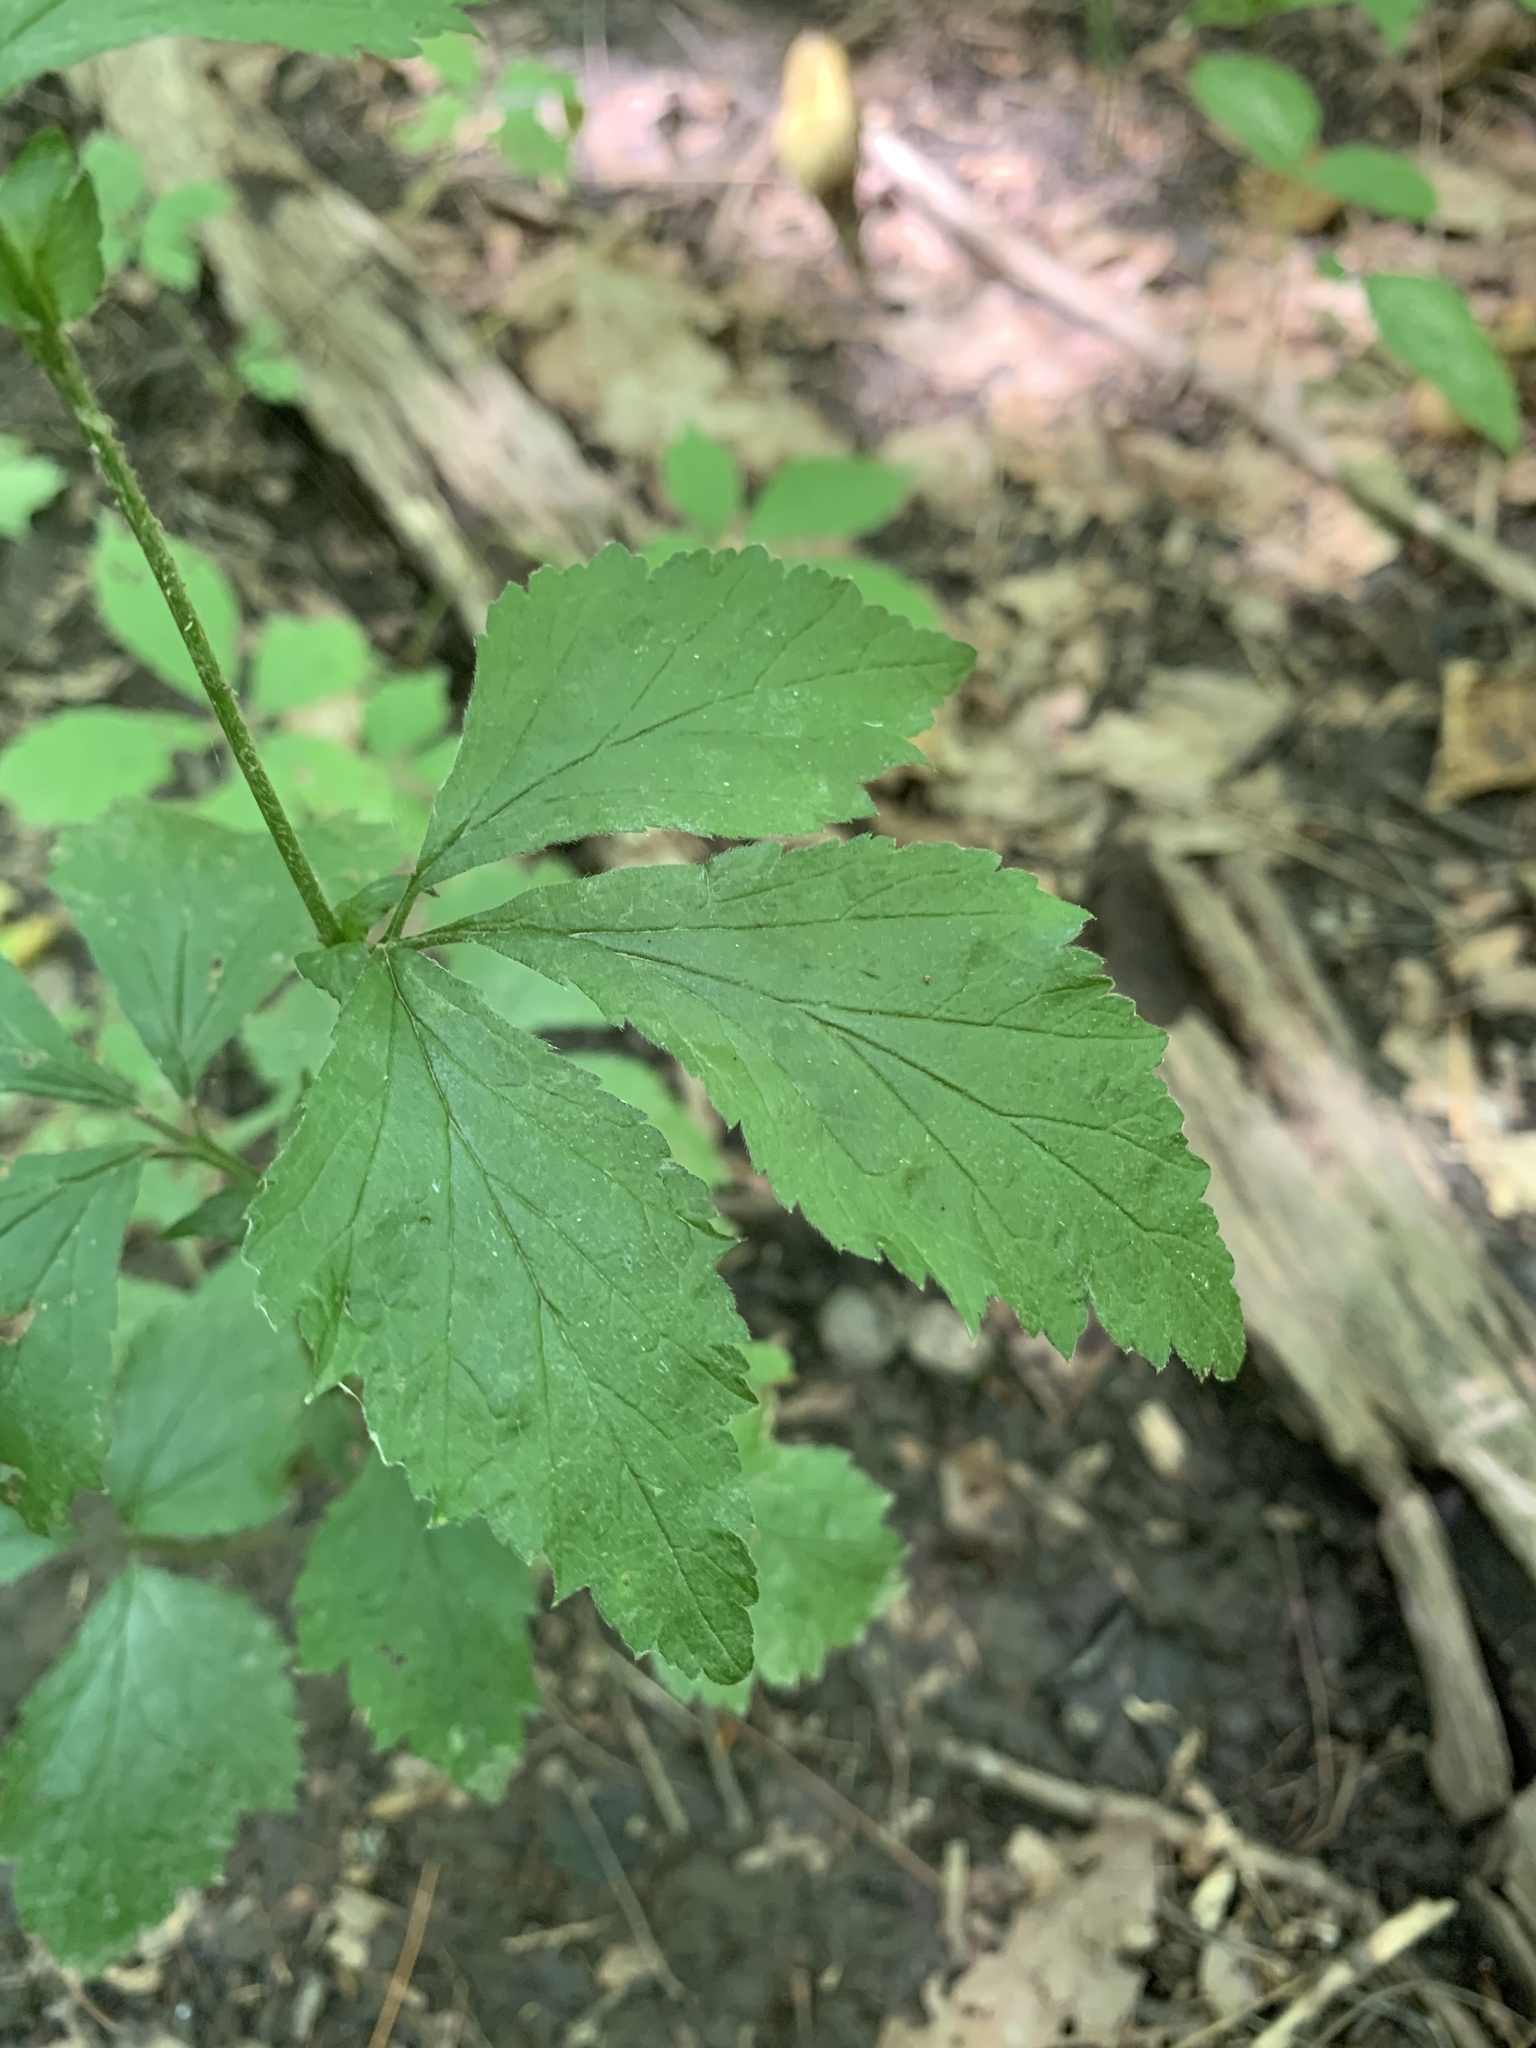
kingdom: Plantae
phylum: Tracheophyta
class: Magnoliopsida
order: Rosales
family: Rosaceae
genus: Geum
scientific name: Geum canadense
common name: White avens
